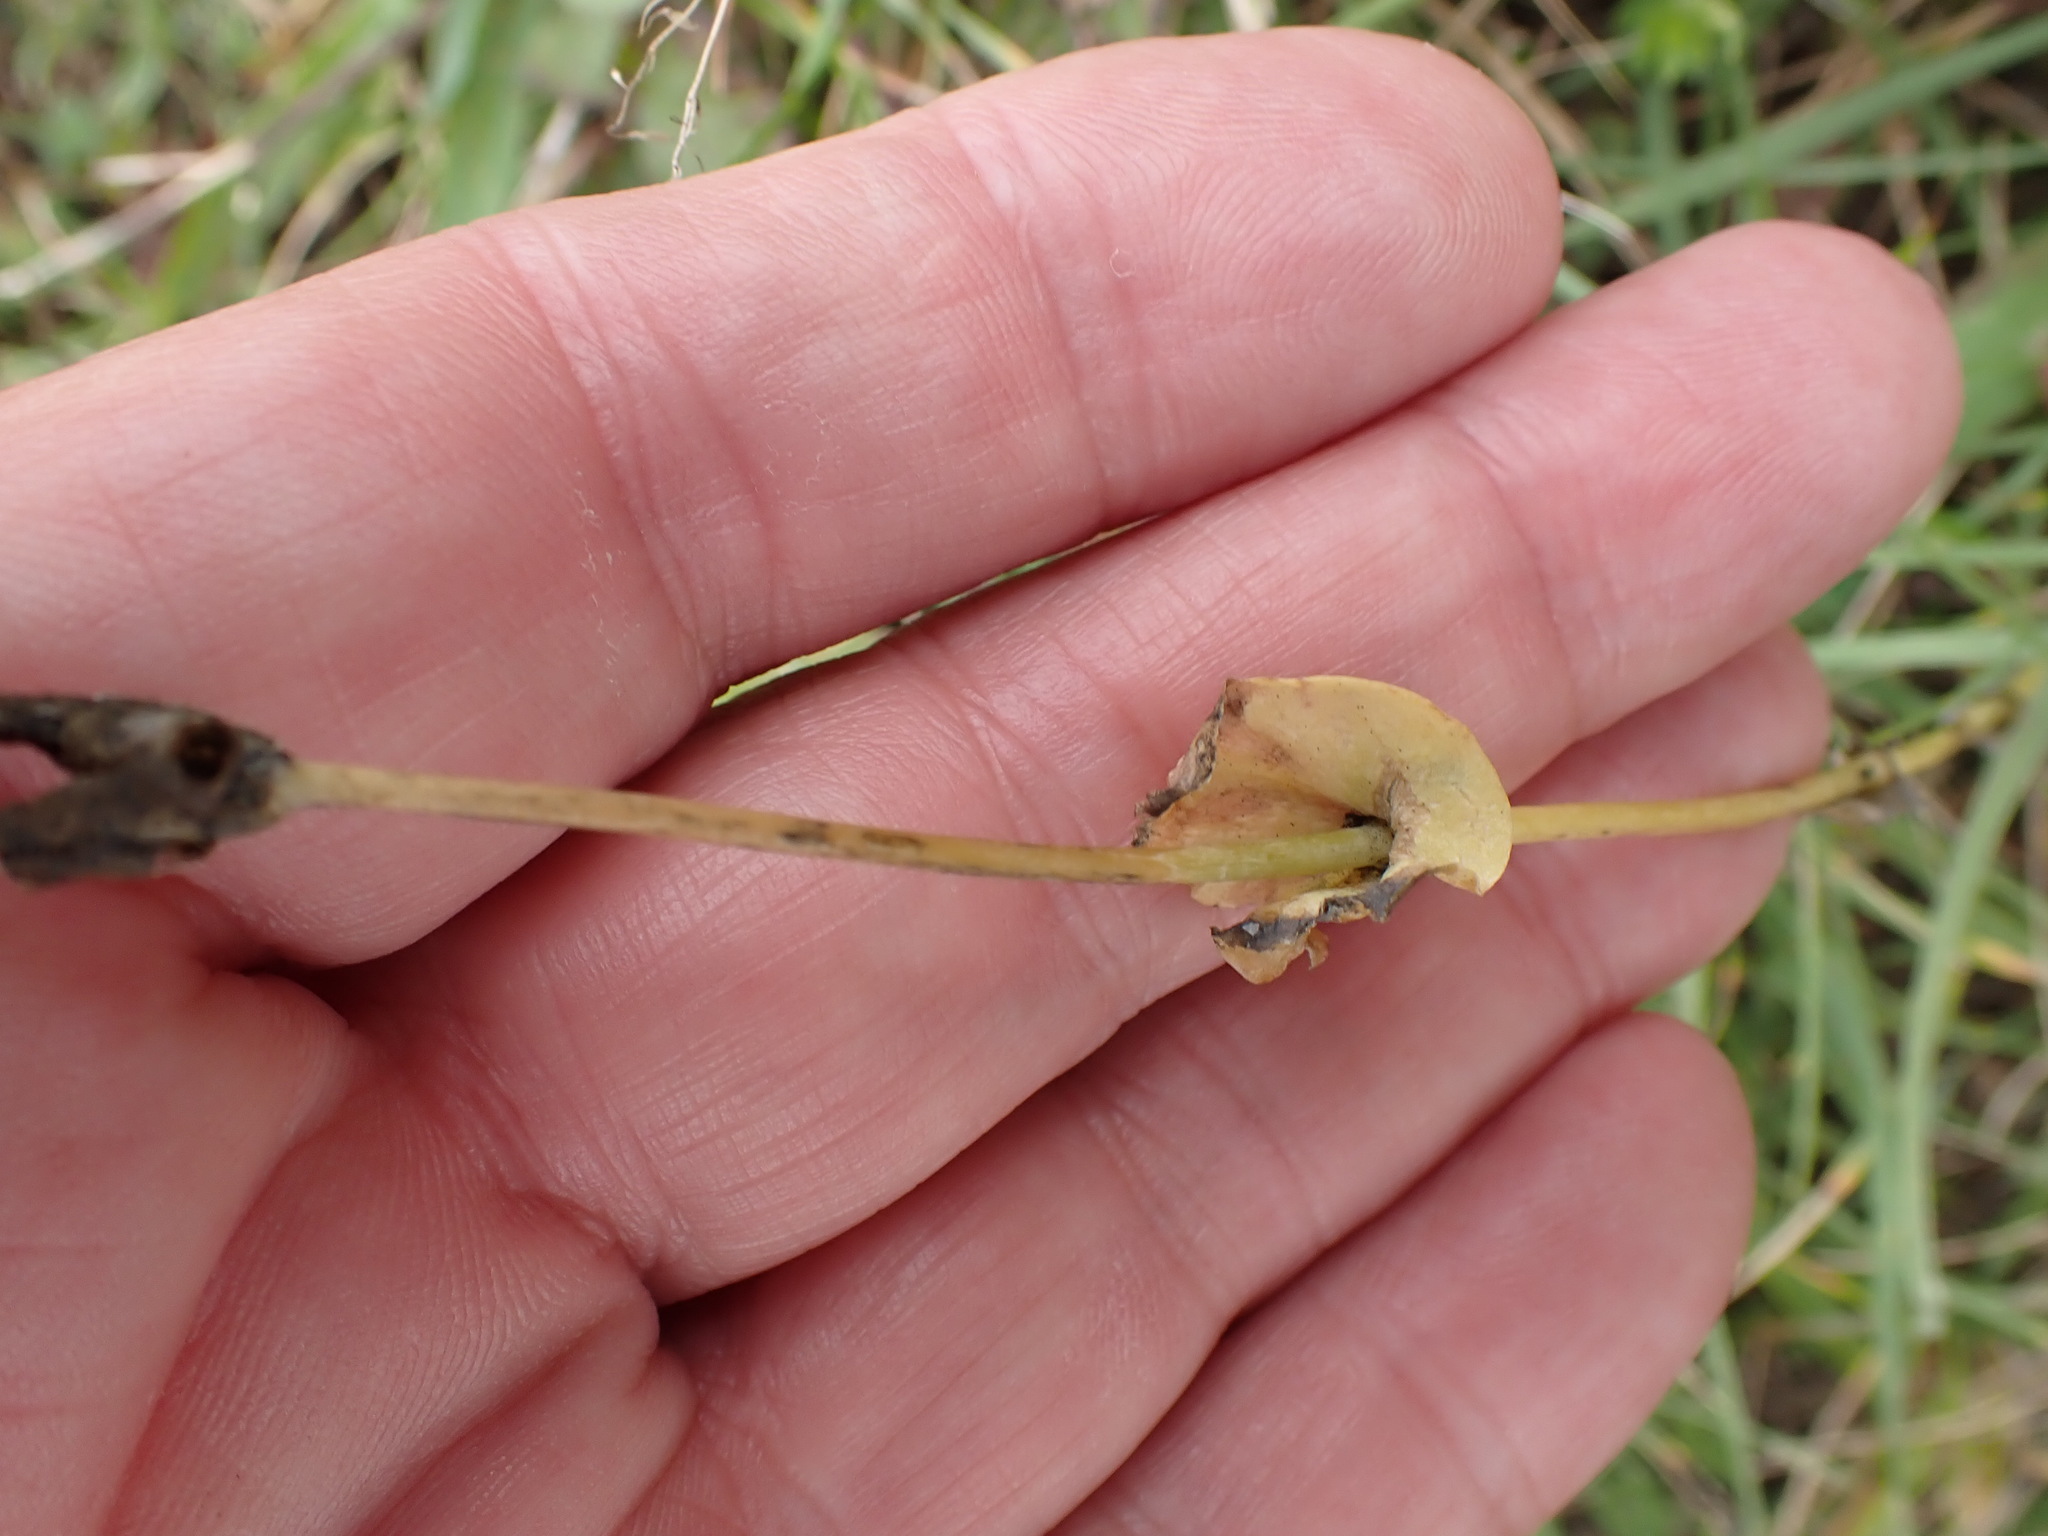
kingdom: Plantae
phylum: Tracheophyta
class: Magnoliopsida
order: Gentianales
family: Gentianaceae
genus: Blackstonia
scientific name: Blackstonia perfoliata
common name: Yellow-wort
